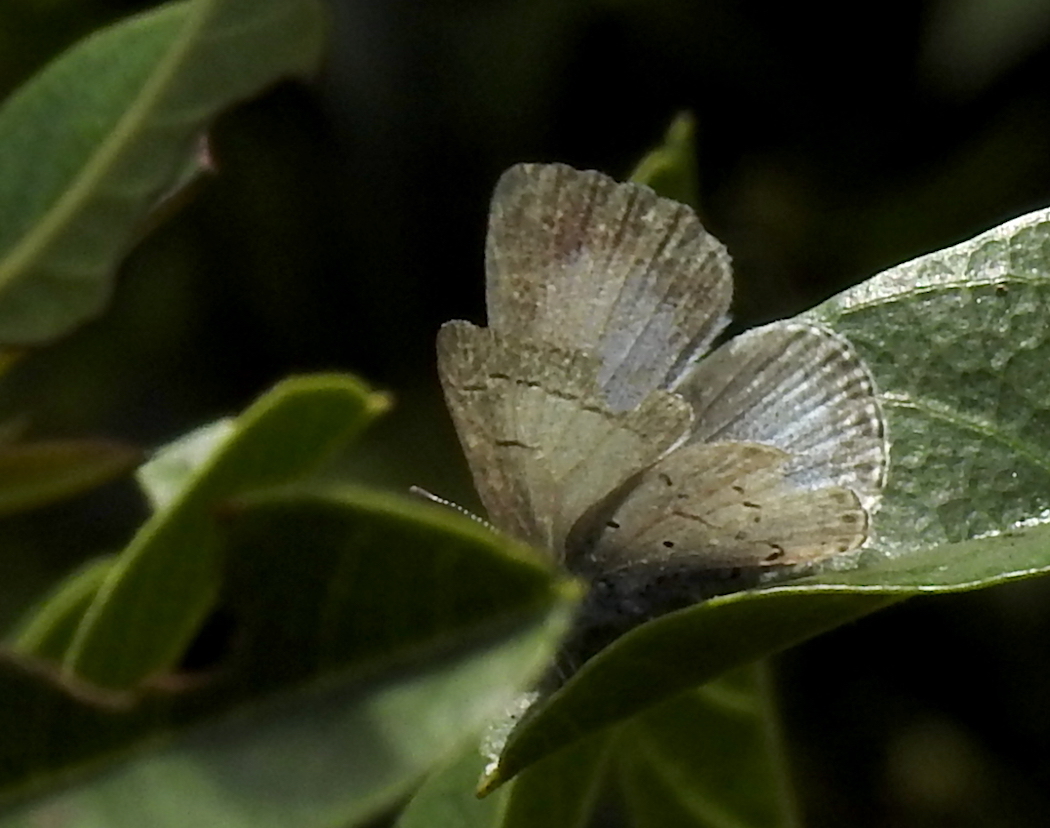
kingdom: Animalia
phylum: Arthropoda
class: Insecta
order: Lepidoptera
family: Lycaenidae
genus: Celastrina
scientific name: Celastrina ladon
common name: Spring azure
